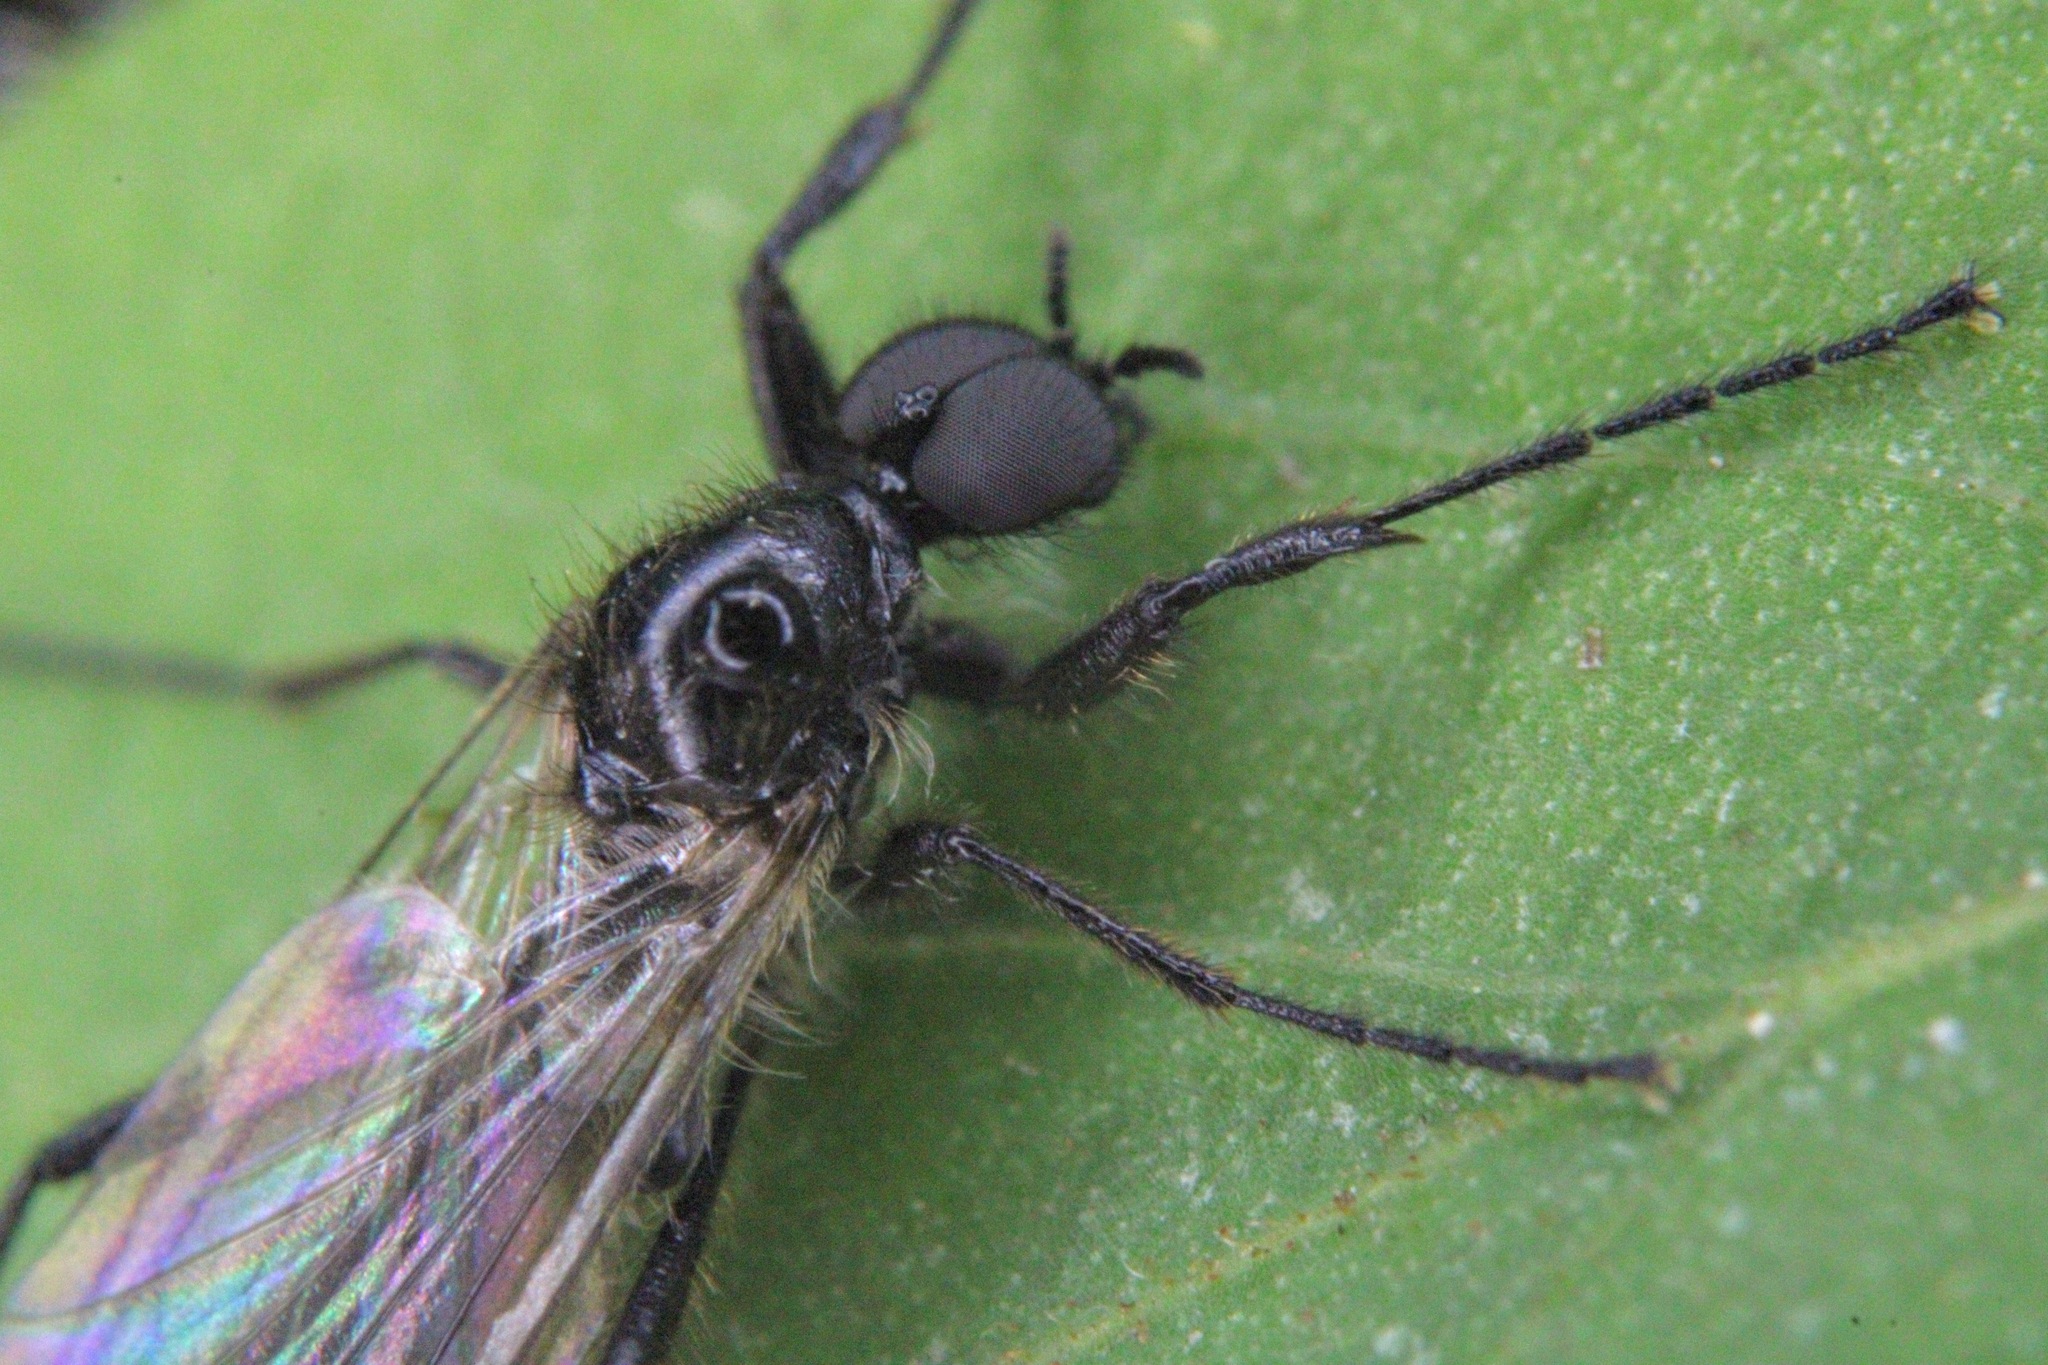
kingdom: Animalia
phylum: Arthropoda
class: Insecta
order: Diptera
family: Bibionidae
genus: Bibio
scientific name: Bibio
